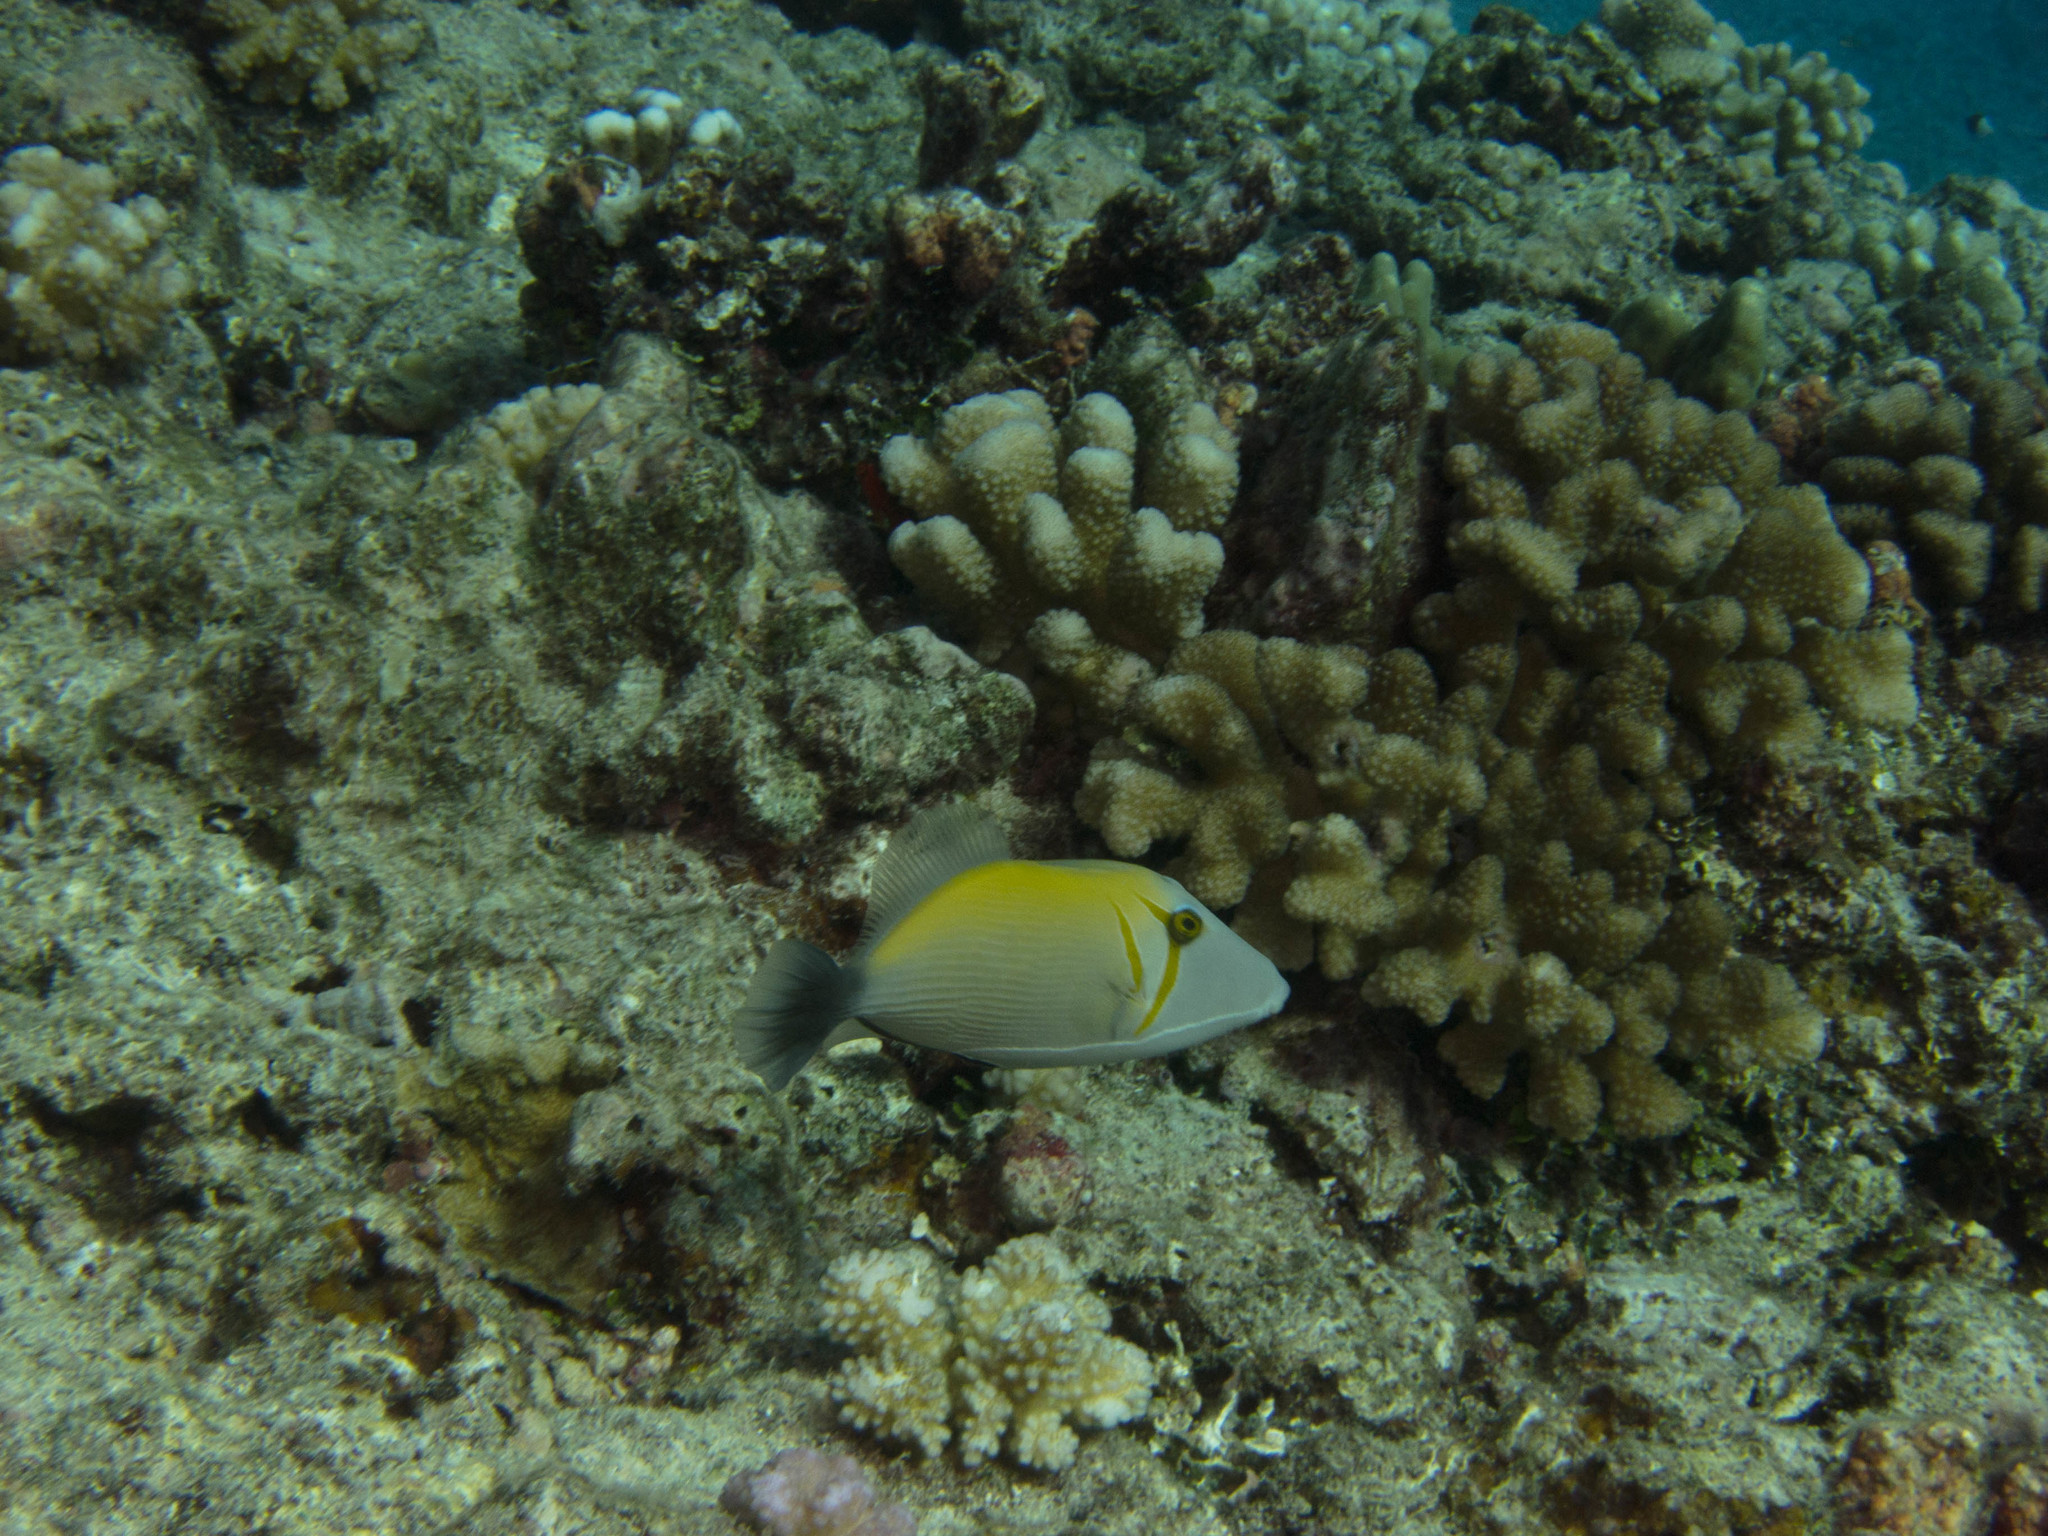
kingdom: Animalia
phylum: Chordata
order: Tetraodontiformes
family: Balistidae
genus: Sufflamen
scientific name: Sufflamen bursa
